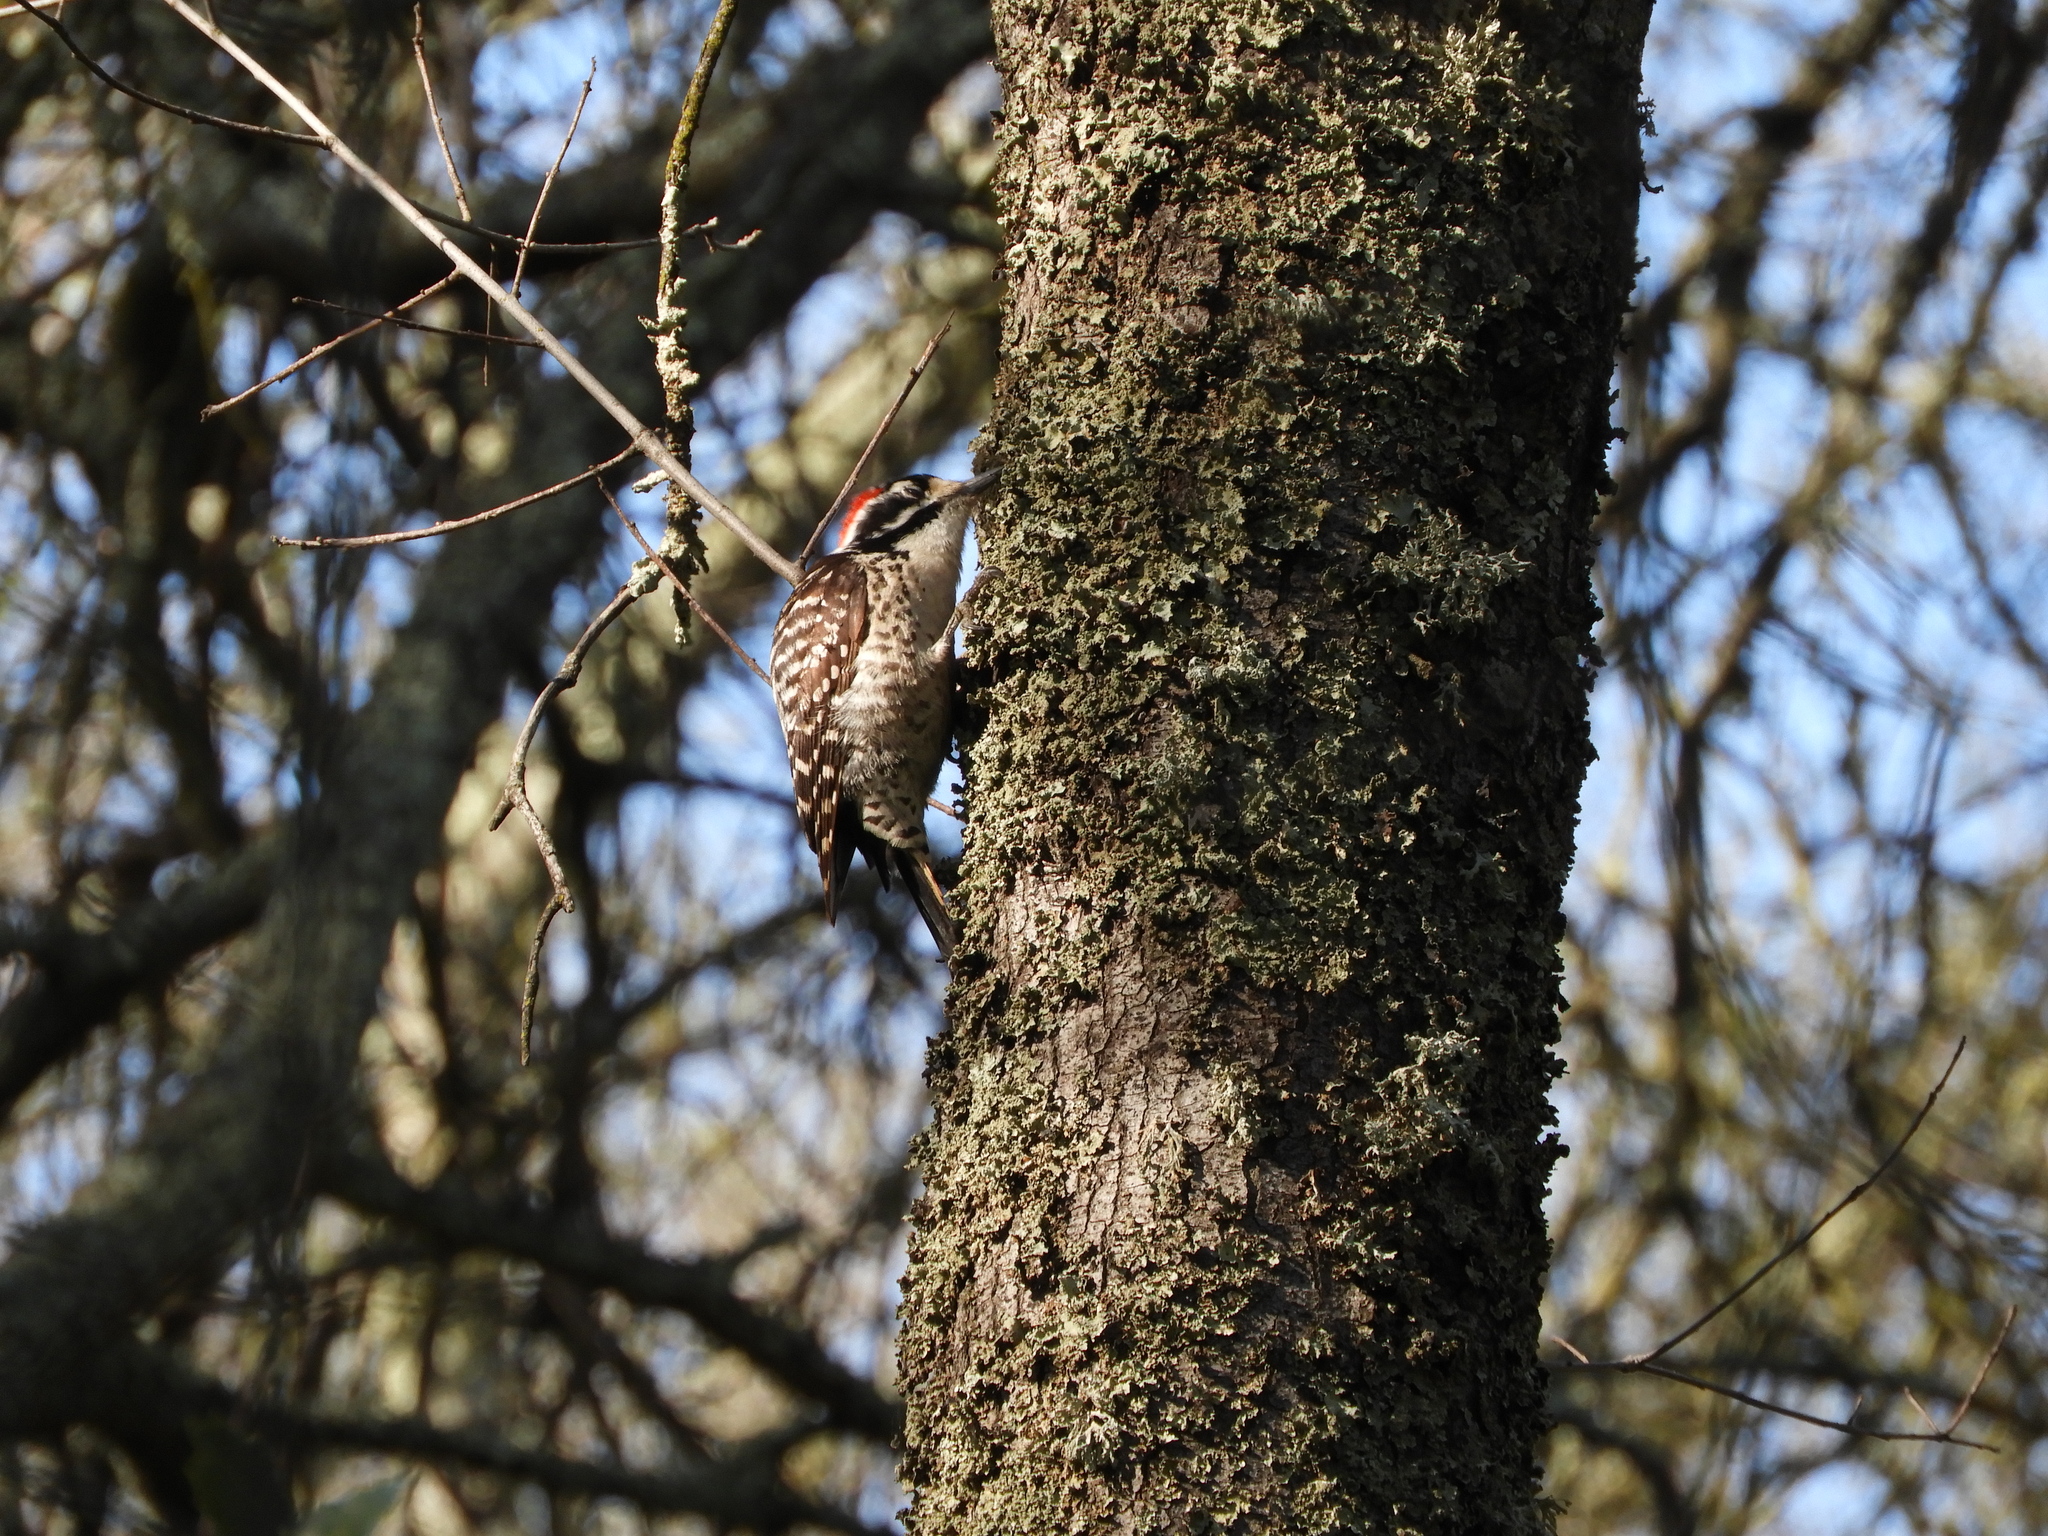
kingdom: Animalia
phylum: Chordata
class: Aves
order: Piciformes
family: Picidae
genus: Dryobates
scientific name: Dryobates nuttallii
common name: Nuttall's woodpecker
